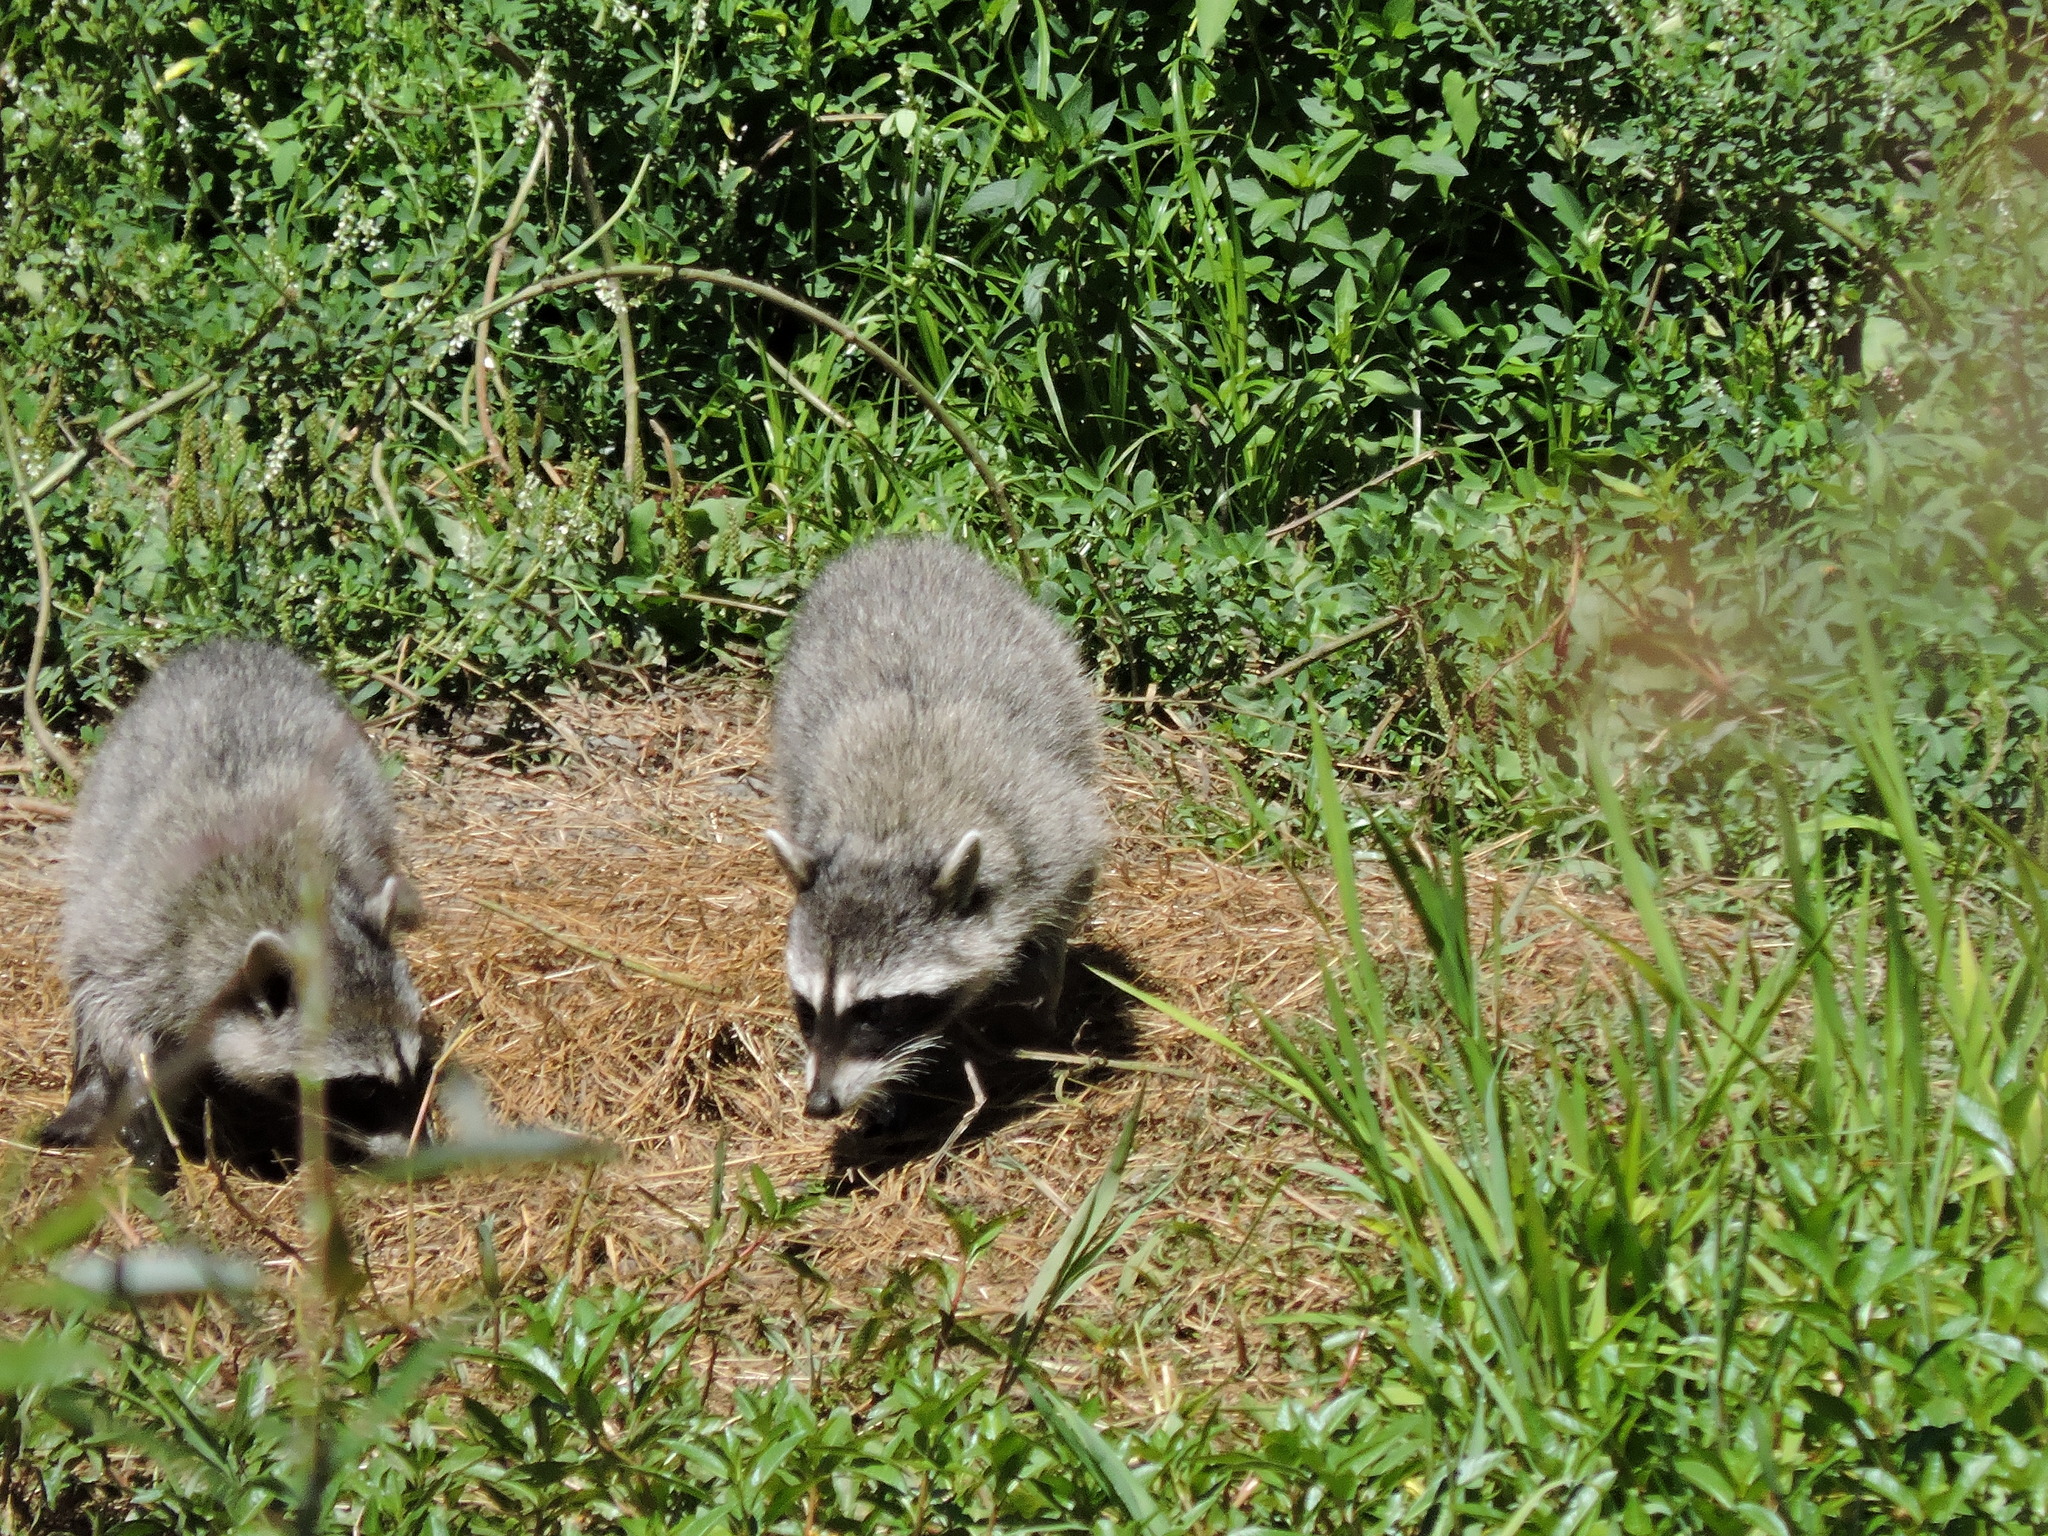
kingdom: Animalia
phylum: Chordata
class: Mammalia
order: Carnivora
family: Procyonidae
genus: Procyon
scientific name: Procyon lotor
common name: Raccoon
